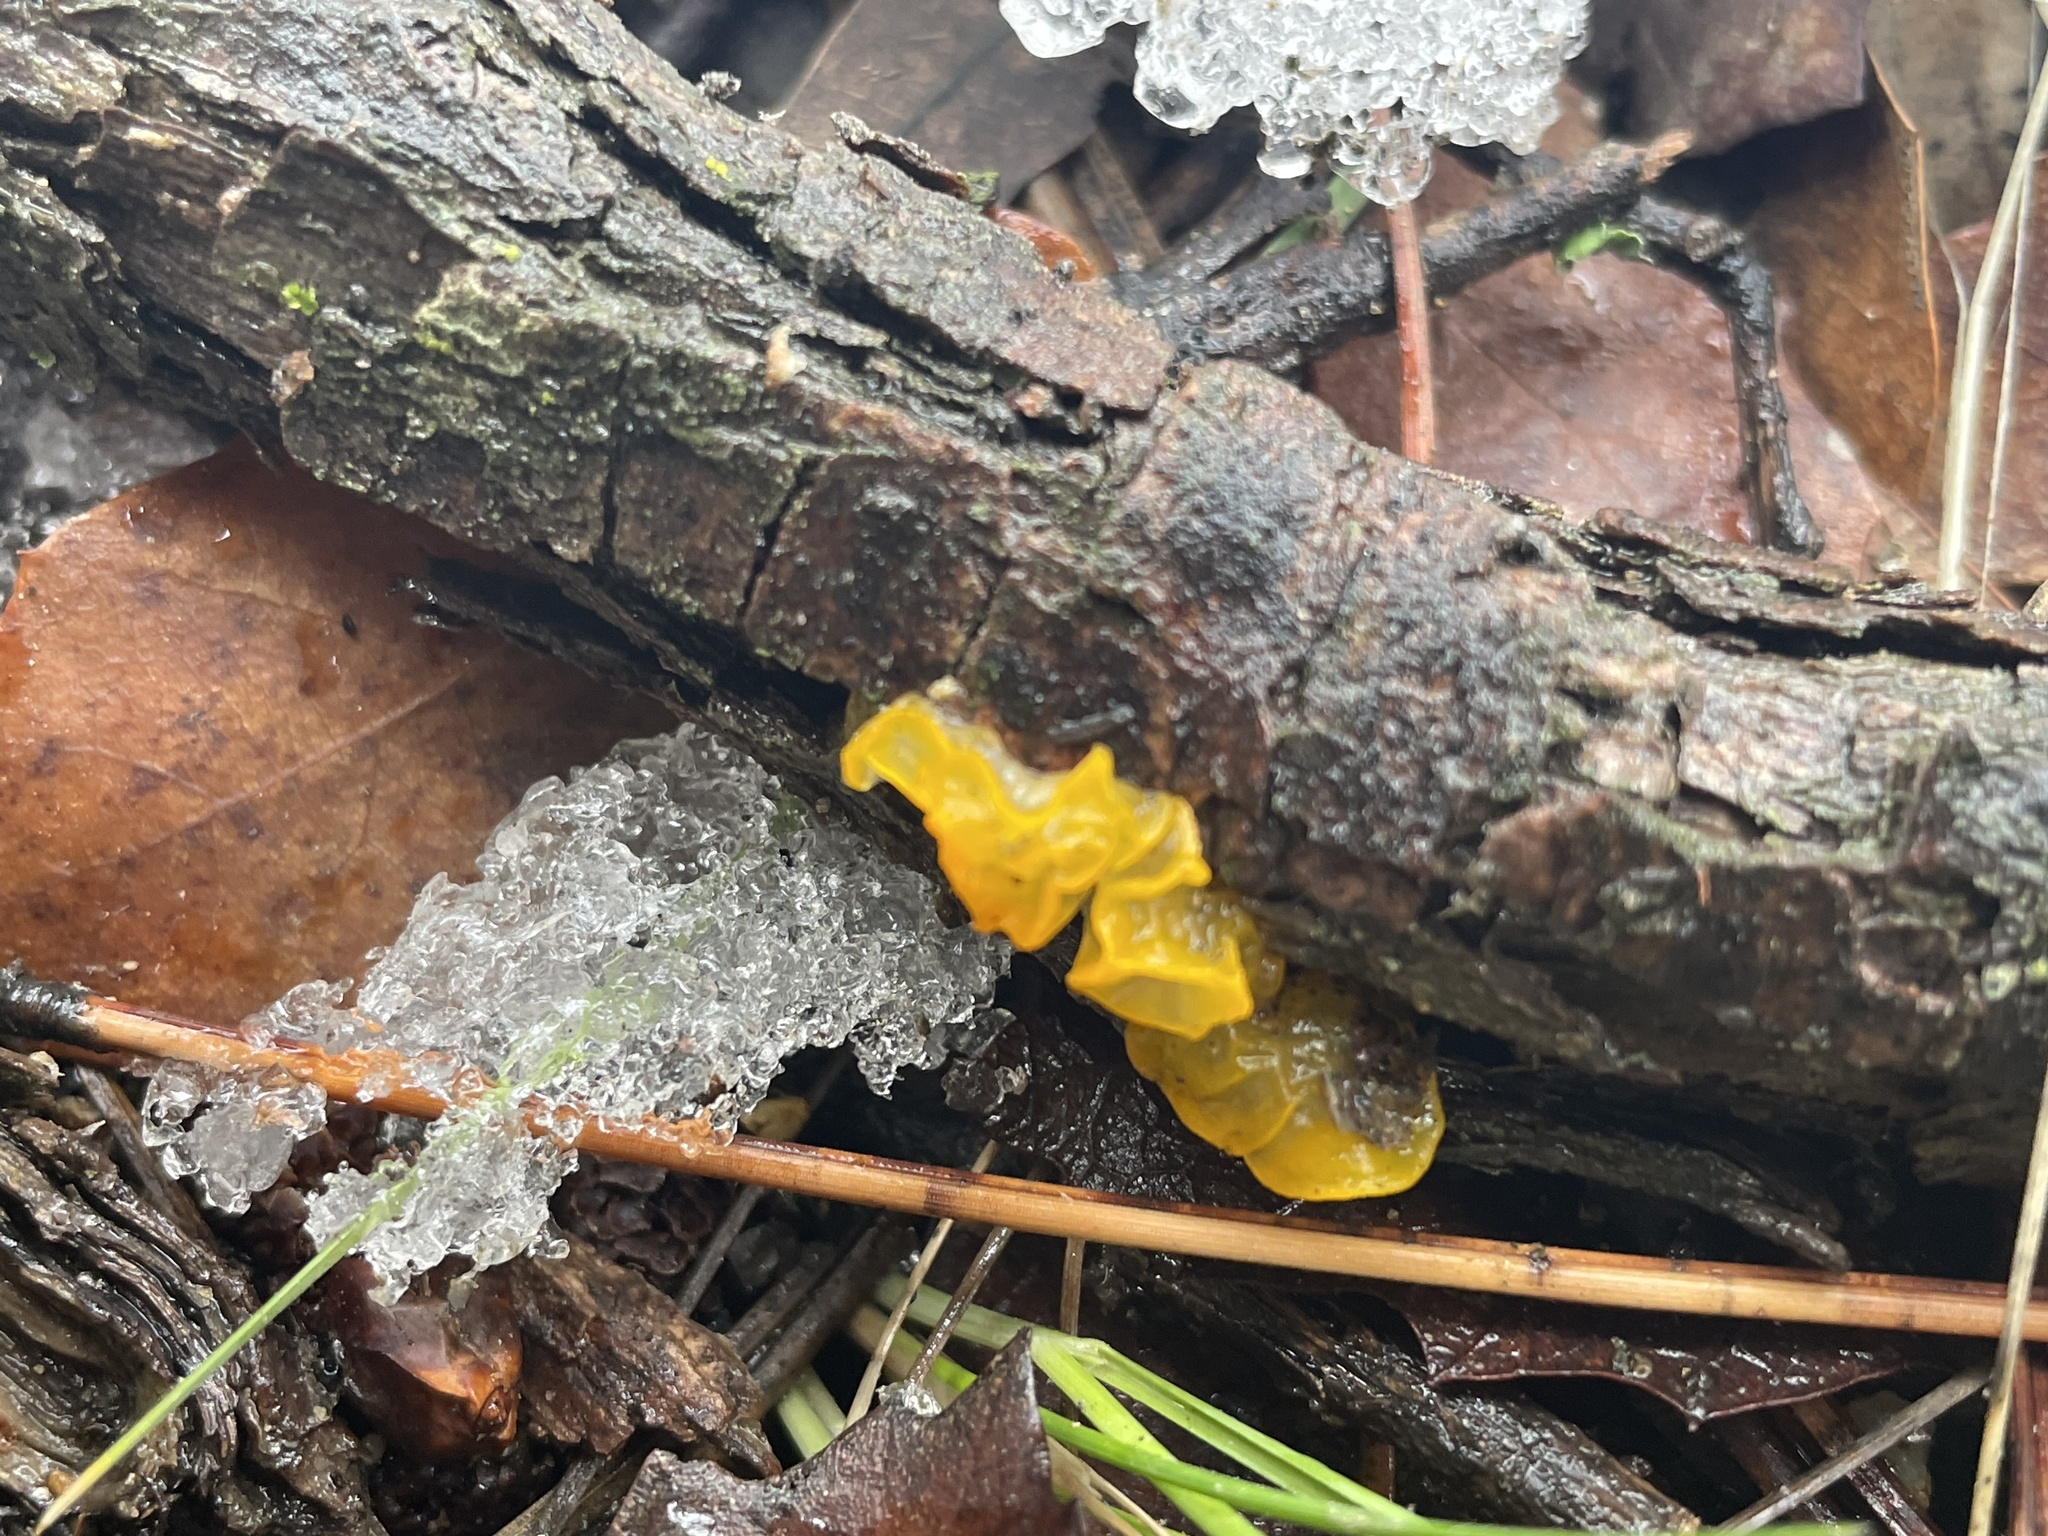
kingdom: Fungi
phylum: Basidiomycota
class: Tremellomycetes
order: Tremellales
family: Tremellaceae
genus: Tremella
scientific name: Tremella mesenterica
